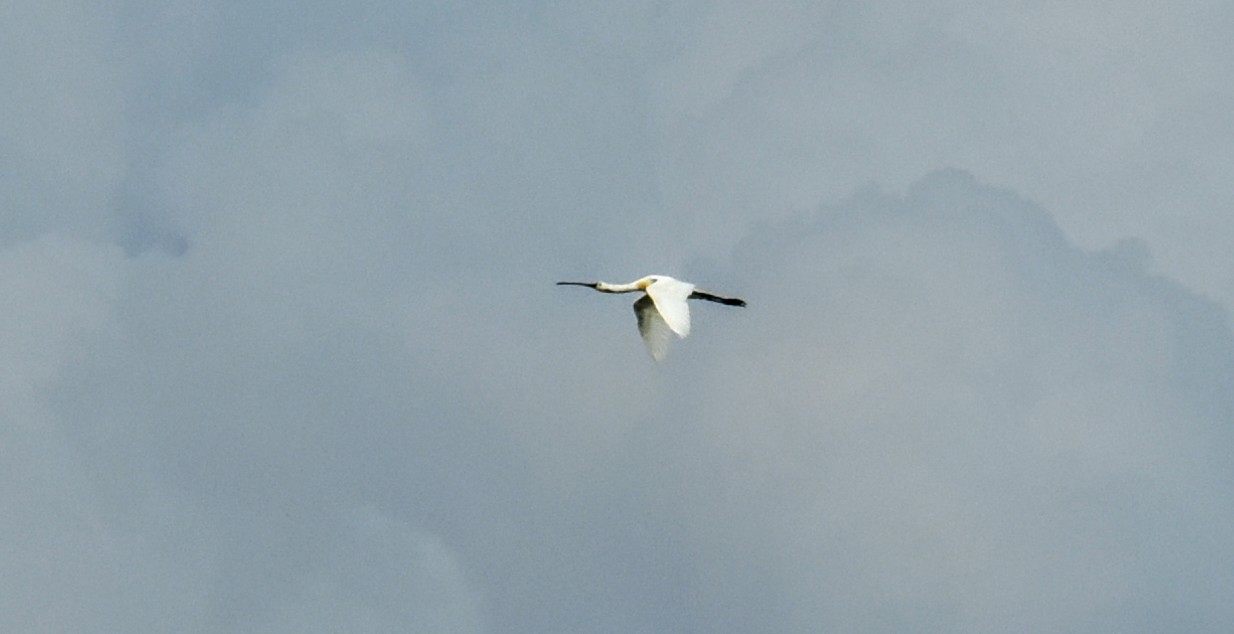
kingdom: Animalia
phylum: Chordata
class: Aves
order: Pelecaniformes
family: Threskiornithidae
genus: Platalea
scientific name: Platalea leucorodia
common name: Eurasian spoonbill
